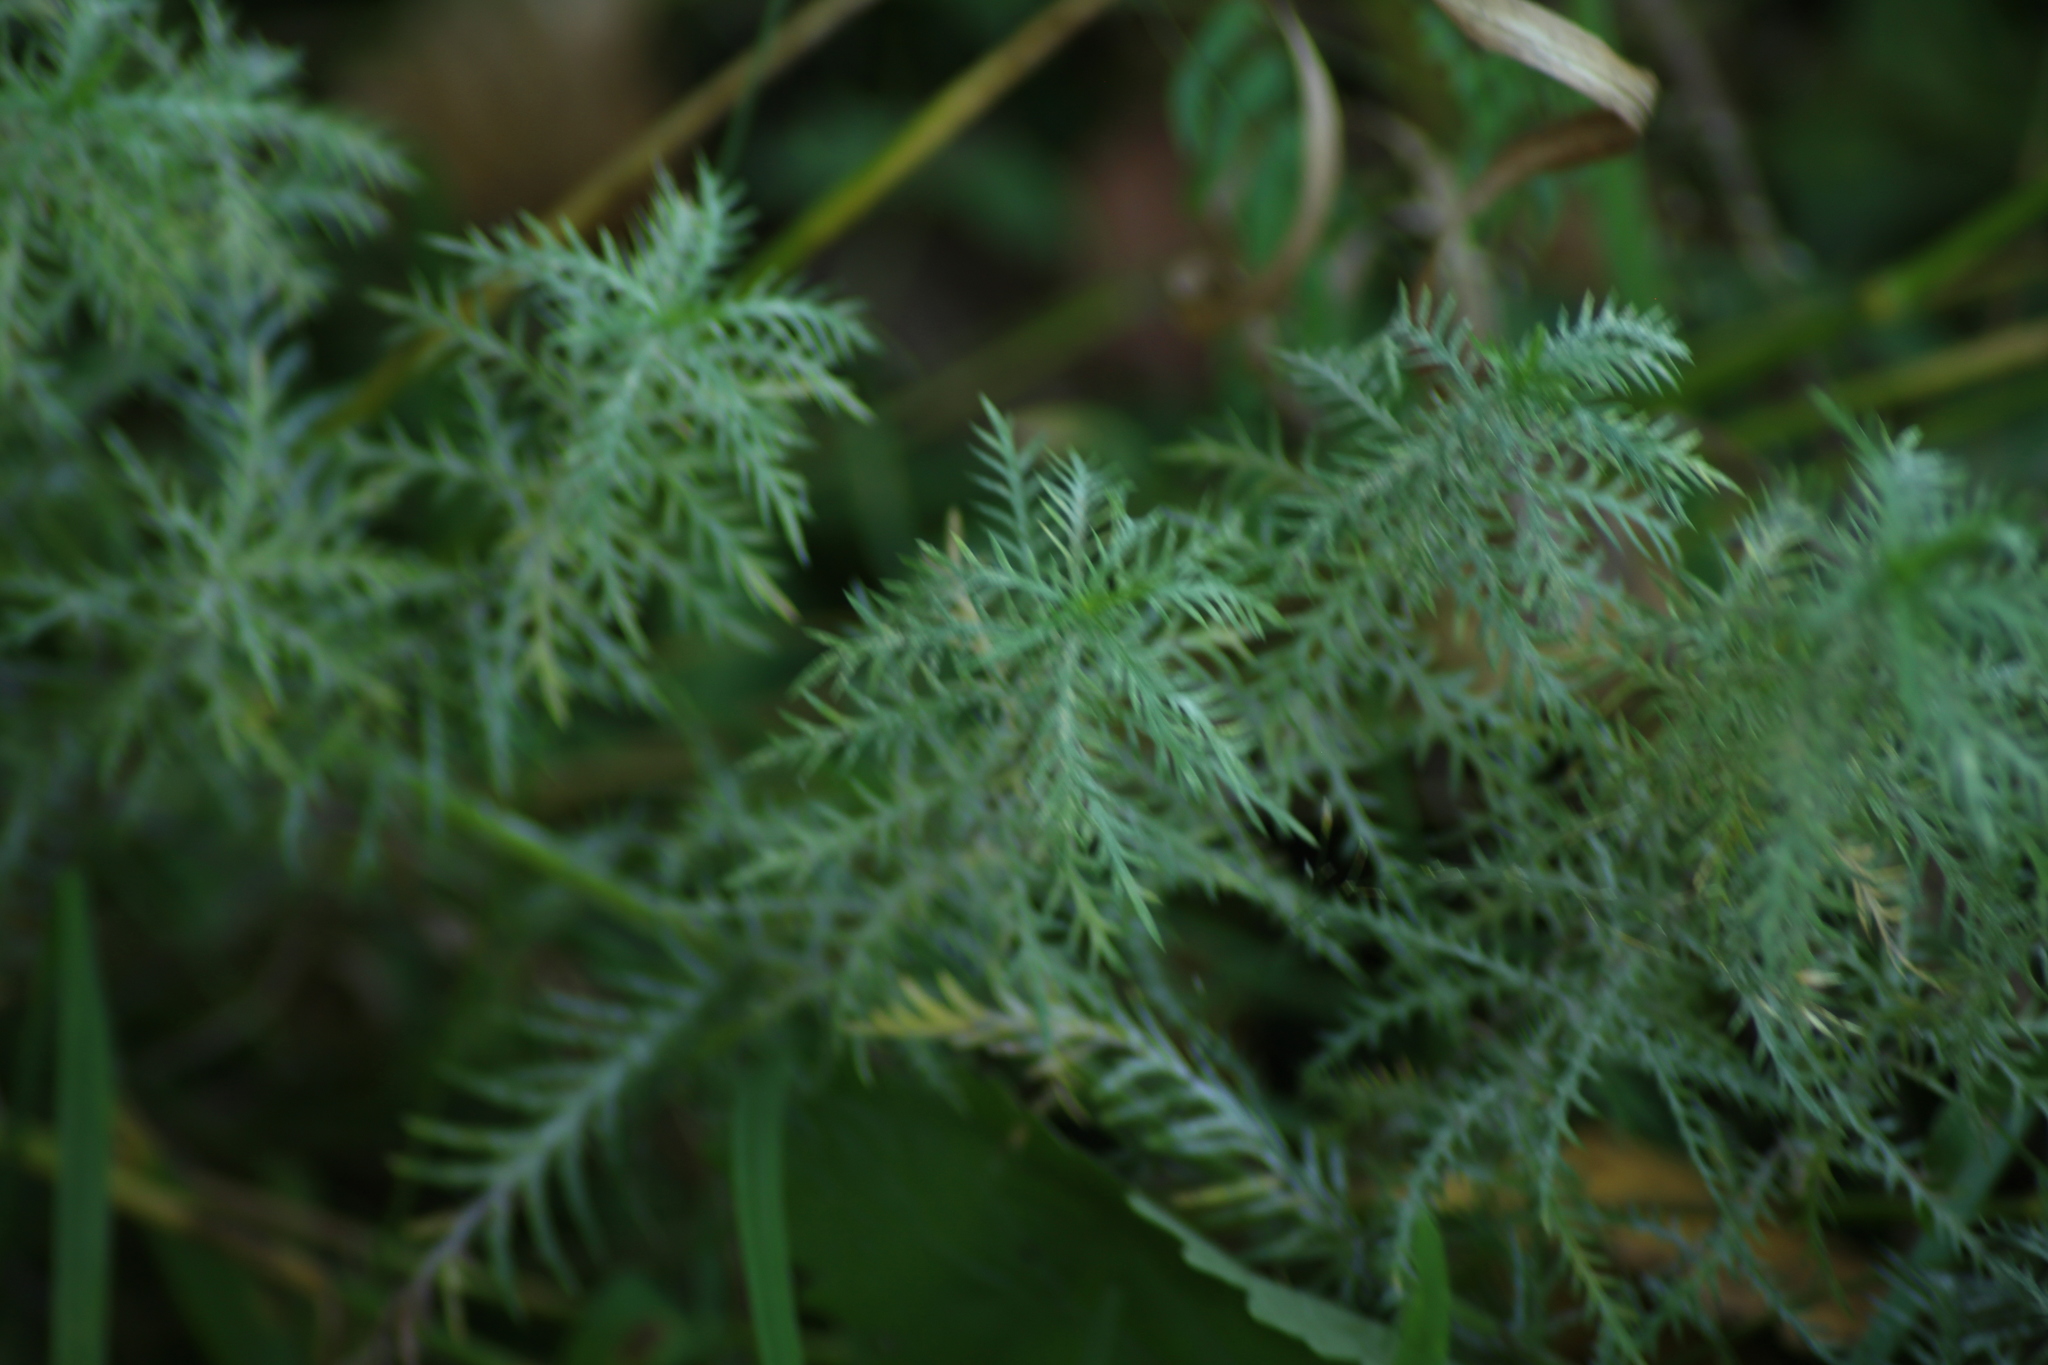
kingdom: Plantae
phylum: Tracheophyta
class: Magnoliopsida
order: Asterales
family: Asteraceae
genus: Achillea
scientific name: Achillea impatiens
